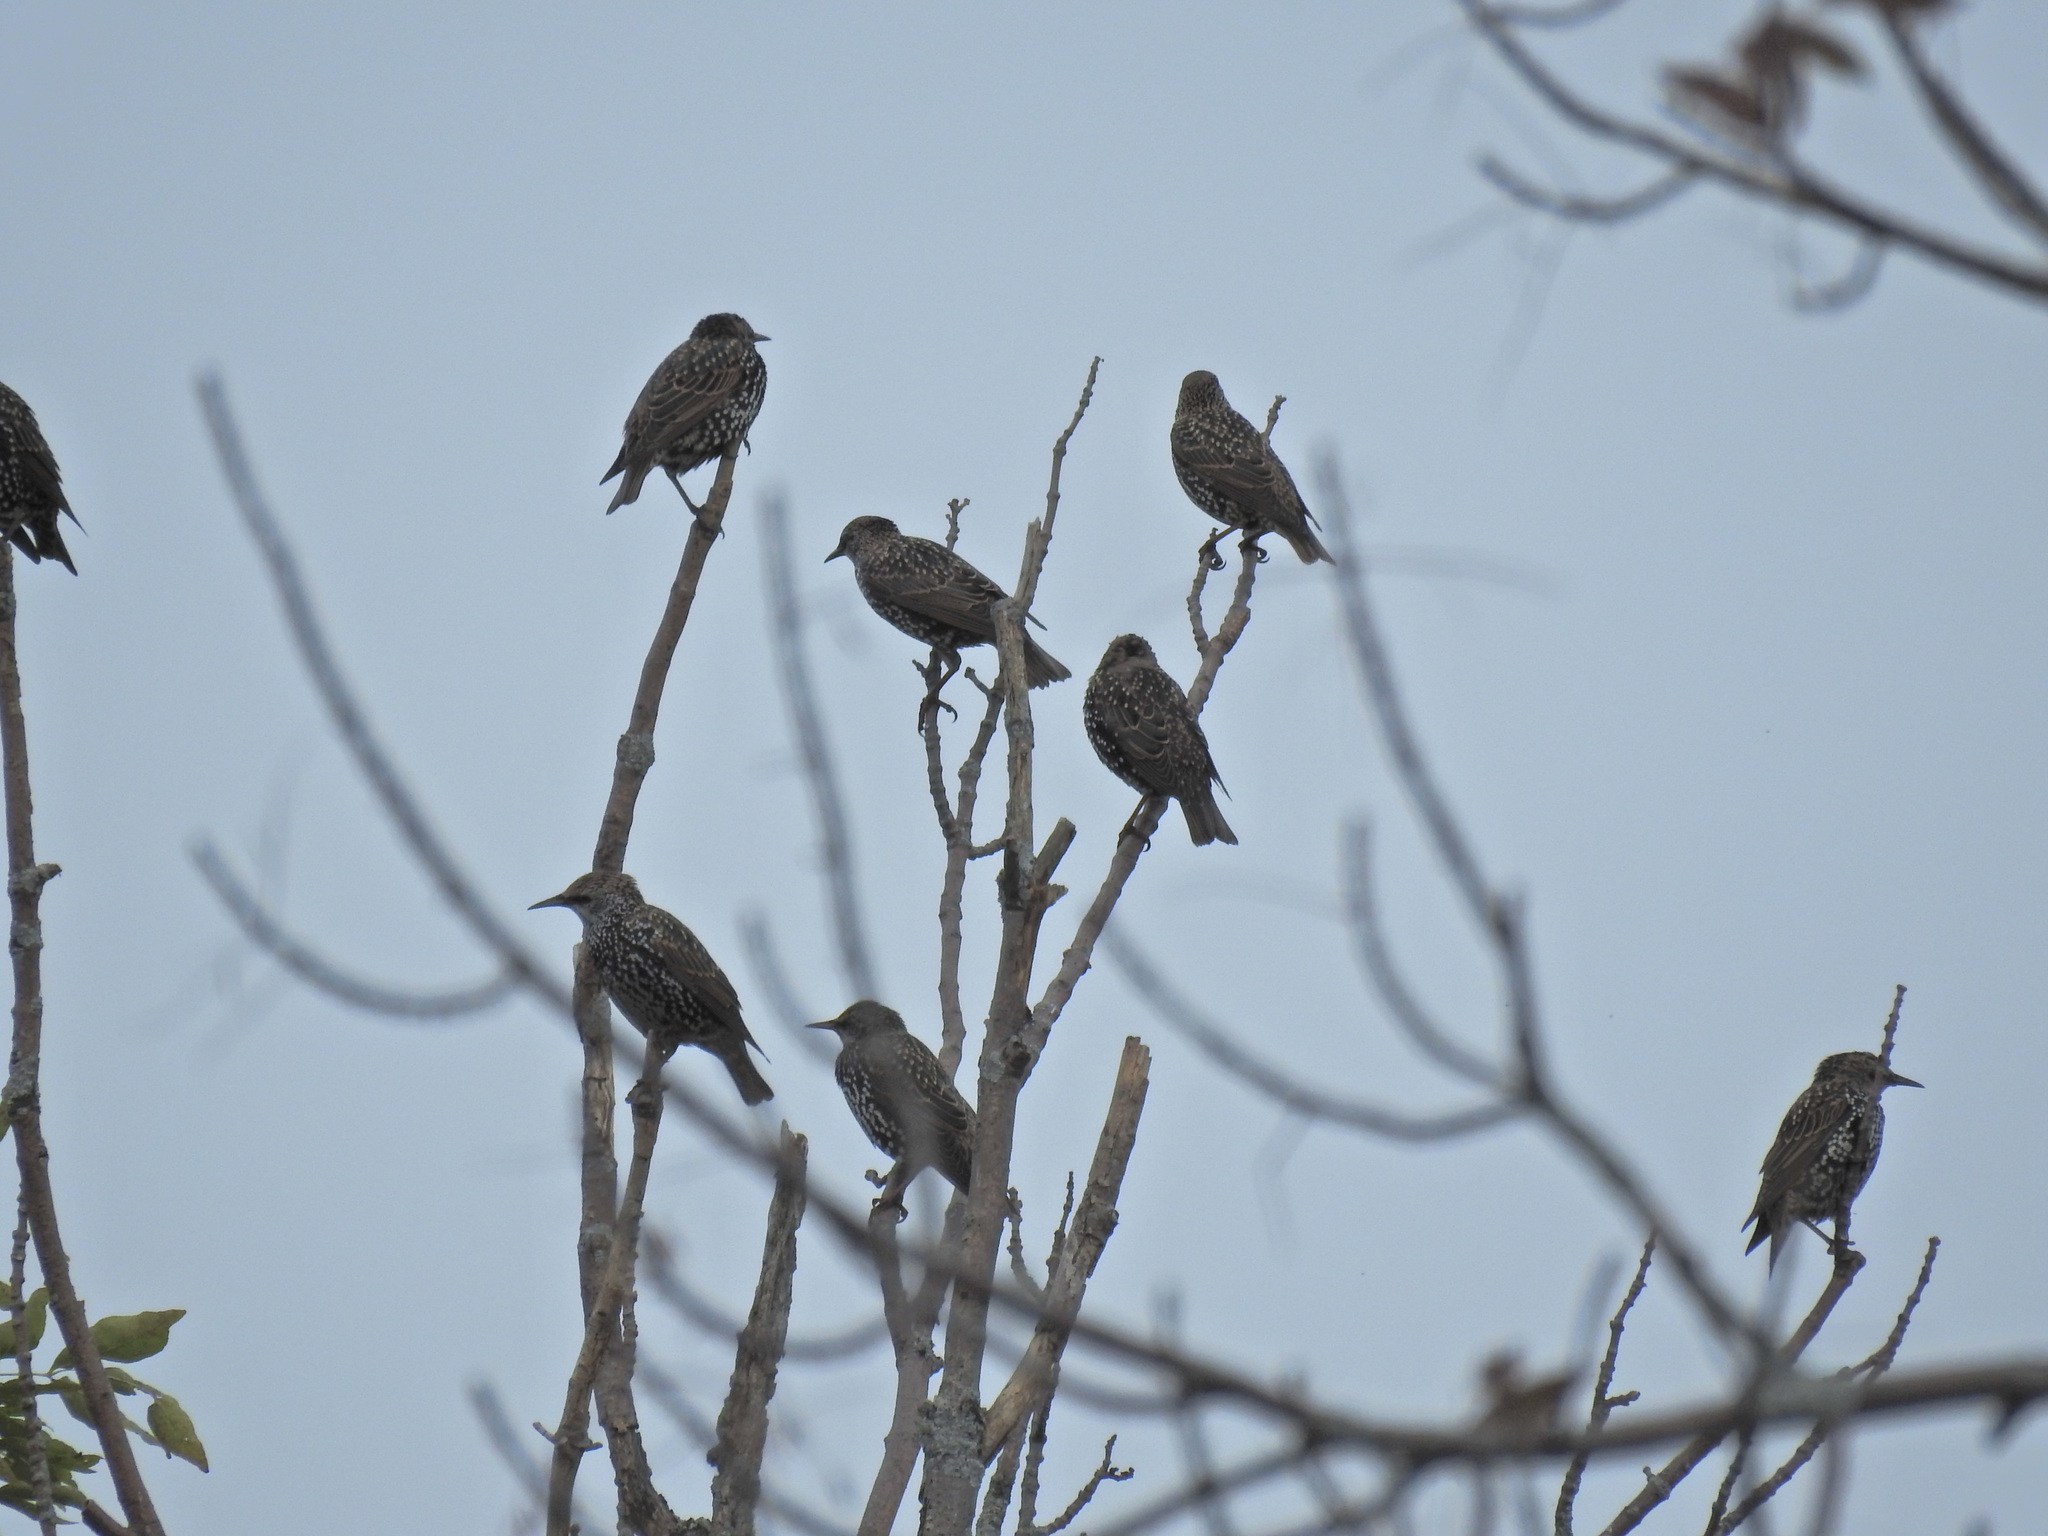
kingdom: Animalia
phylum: Chordata
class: Aves
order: Passeriformes
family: Sturnidae
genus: Sturnus
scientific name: Sturnus vulgaris
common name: Common starling
